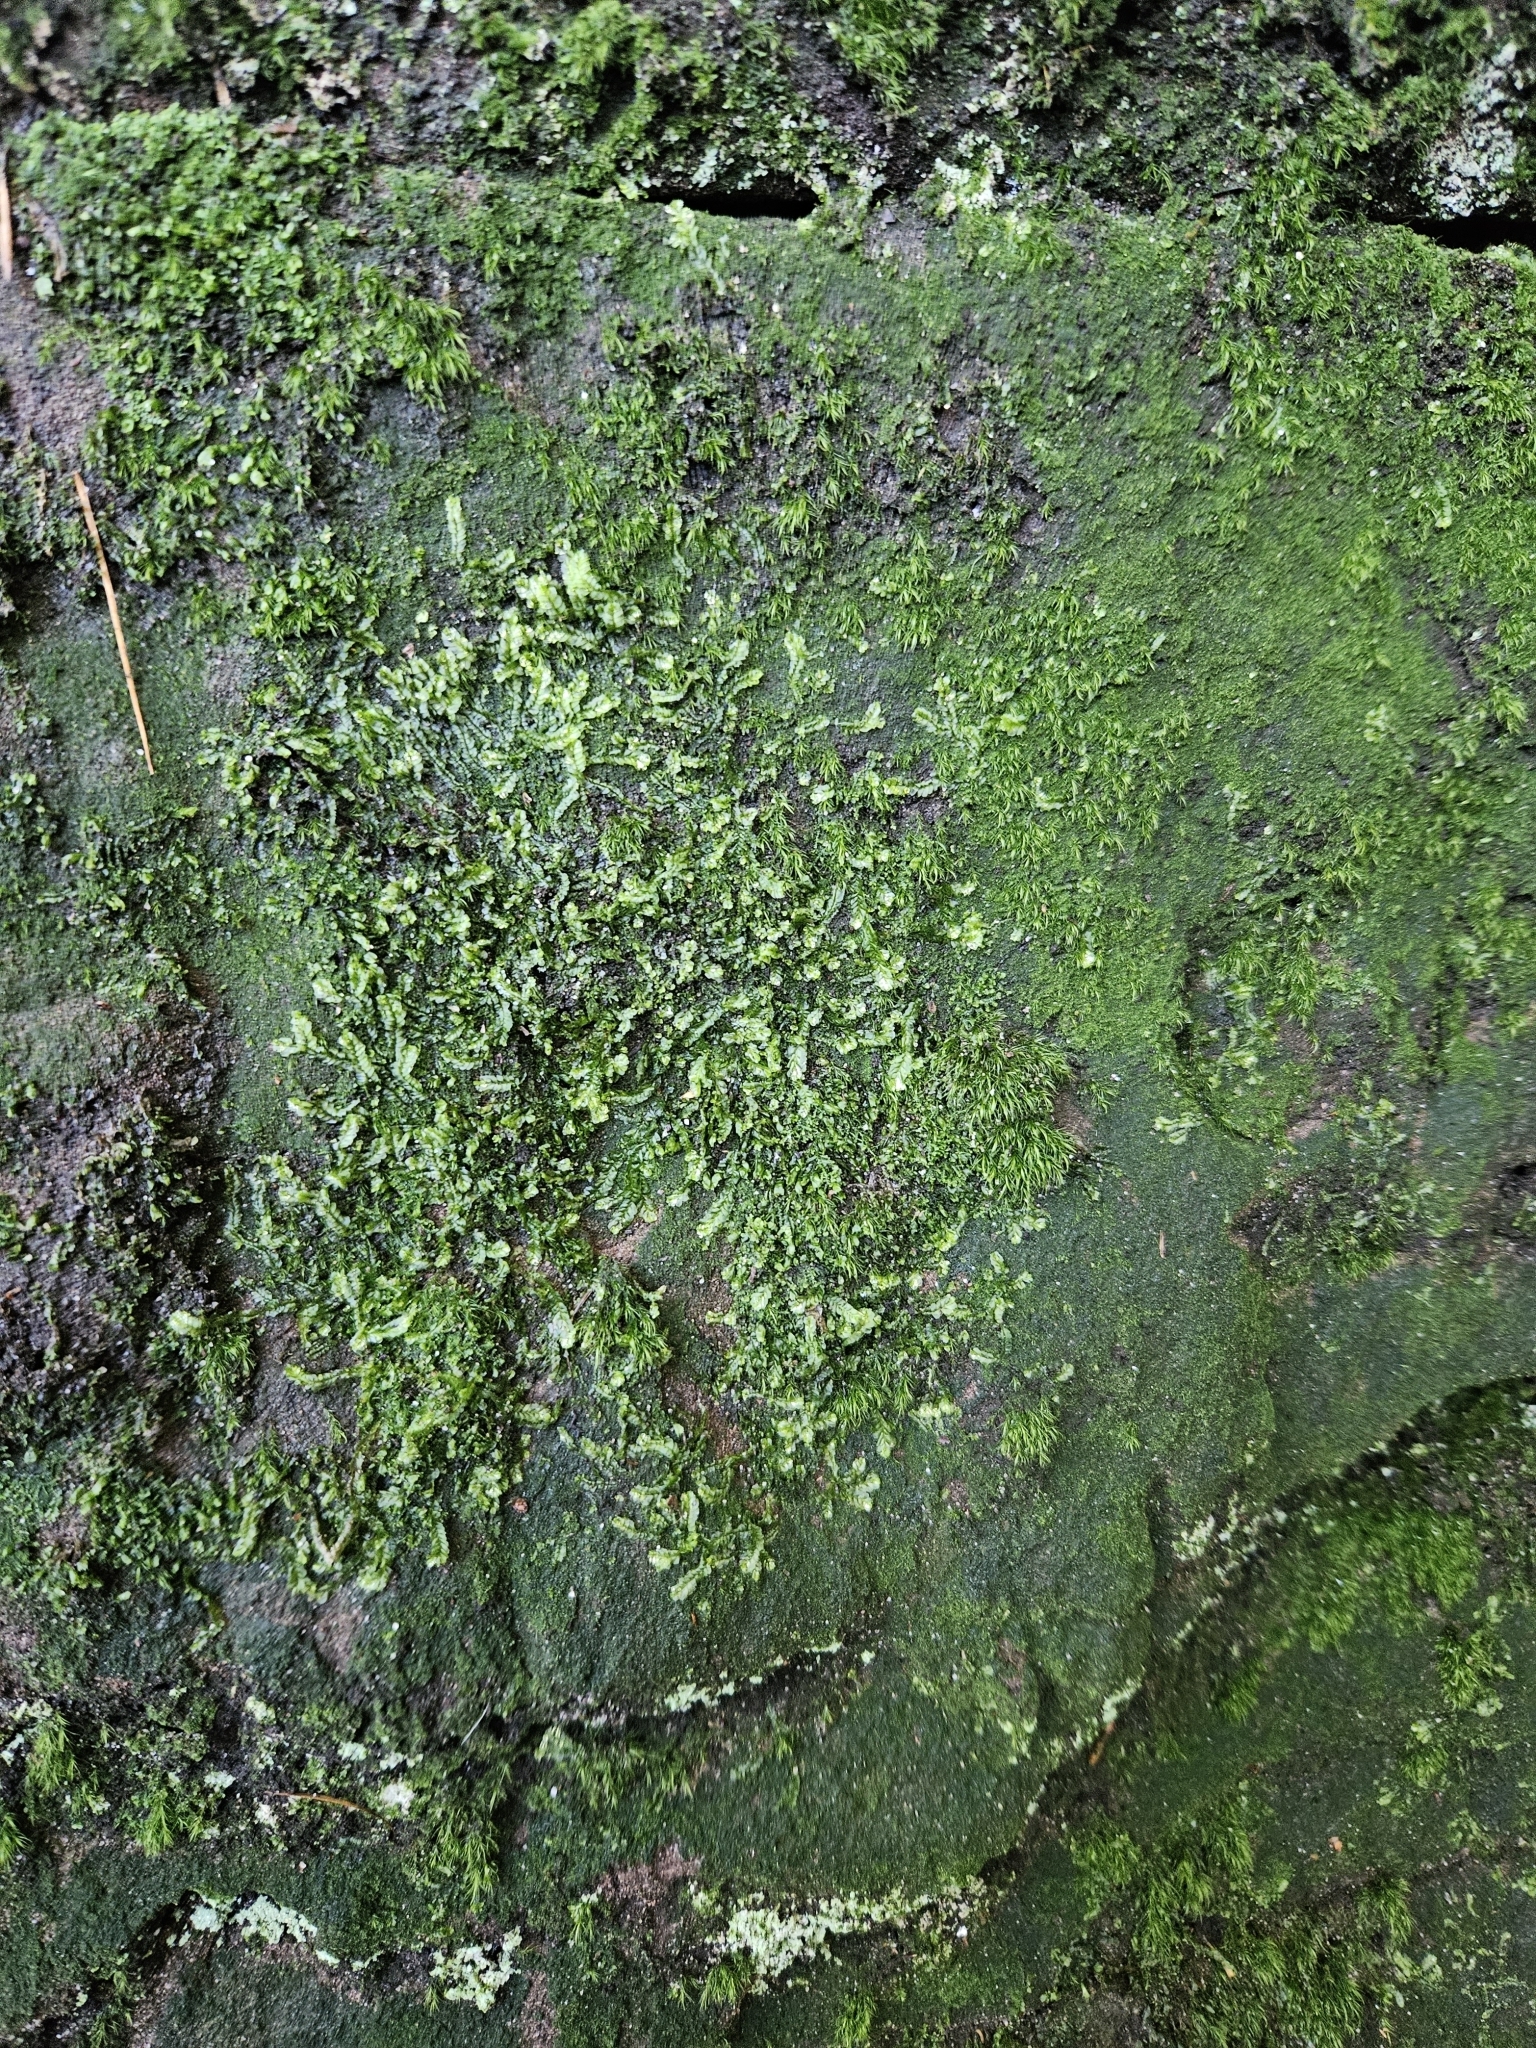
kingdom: Plantae
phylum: Marchantiophyta
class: Jungermanniopsida
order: Jungermanniales
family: Lophocoleaceae
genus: Lophocolea
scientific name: Lophocolea semiteres
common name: Southern crestwort
